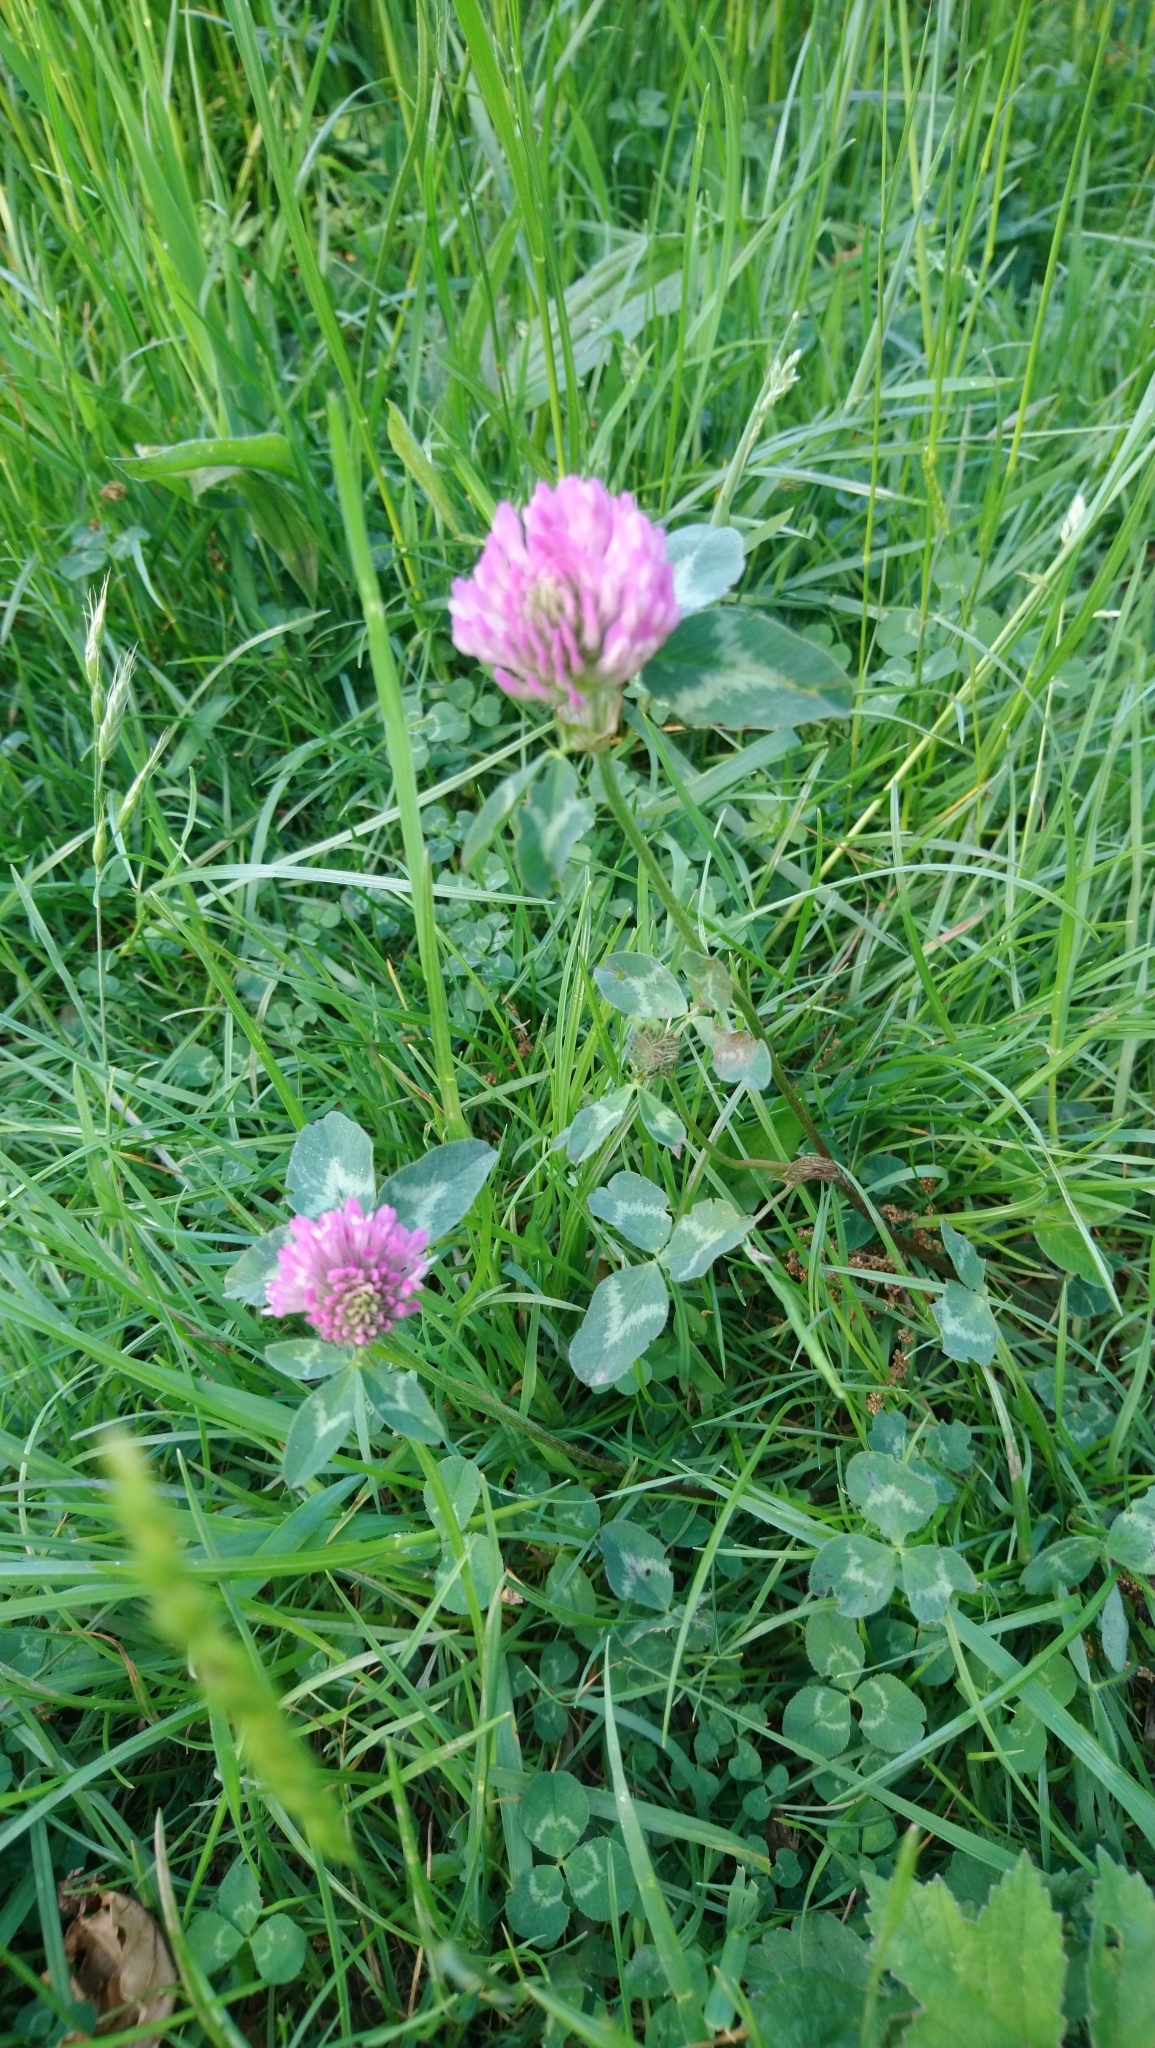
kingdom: Plantae
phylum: Tracheophyta
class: Magnoliopsida
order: Fabales
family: Fabaceae
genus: Trifolium
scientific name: Trifolium pratense
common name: Red clover
